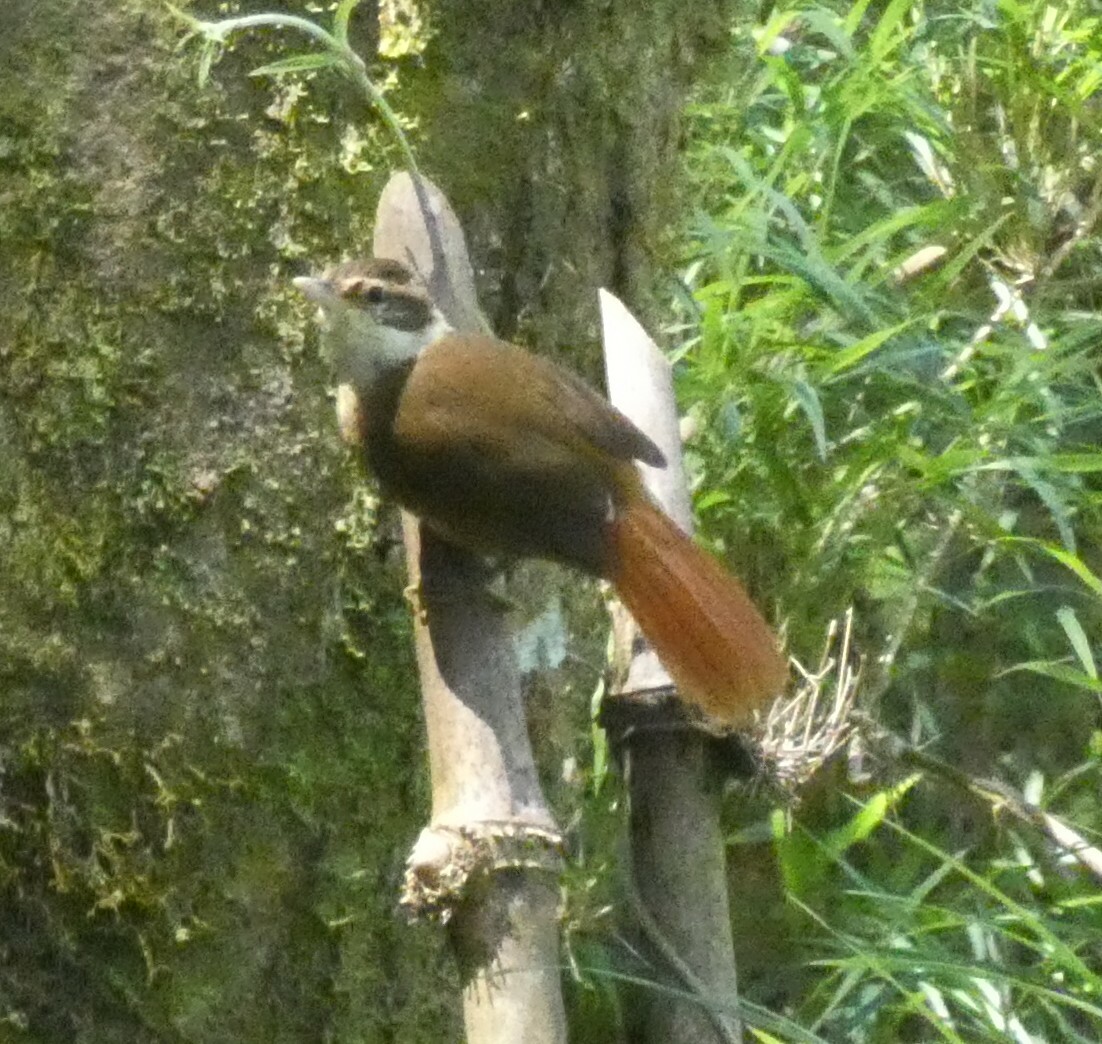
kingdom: Animalia
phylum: Chordata
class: Aves
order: Passeriformes
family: Furnariidae
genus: Anabazenops
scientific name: Anabazenops fuscus
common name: White-collared foliage-gleaner
